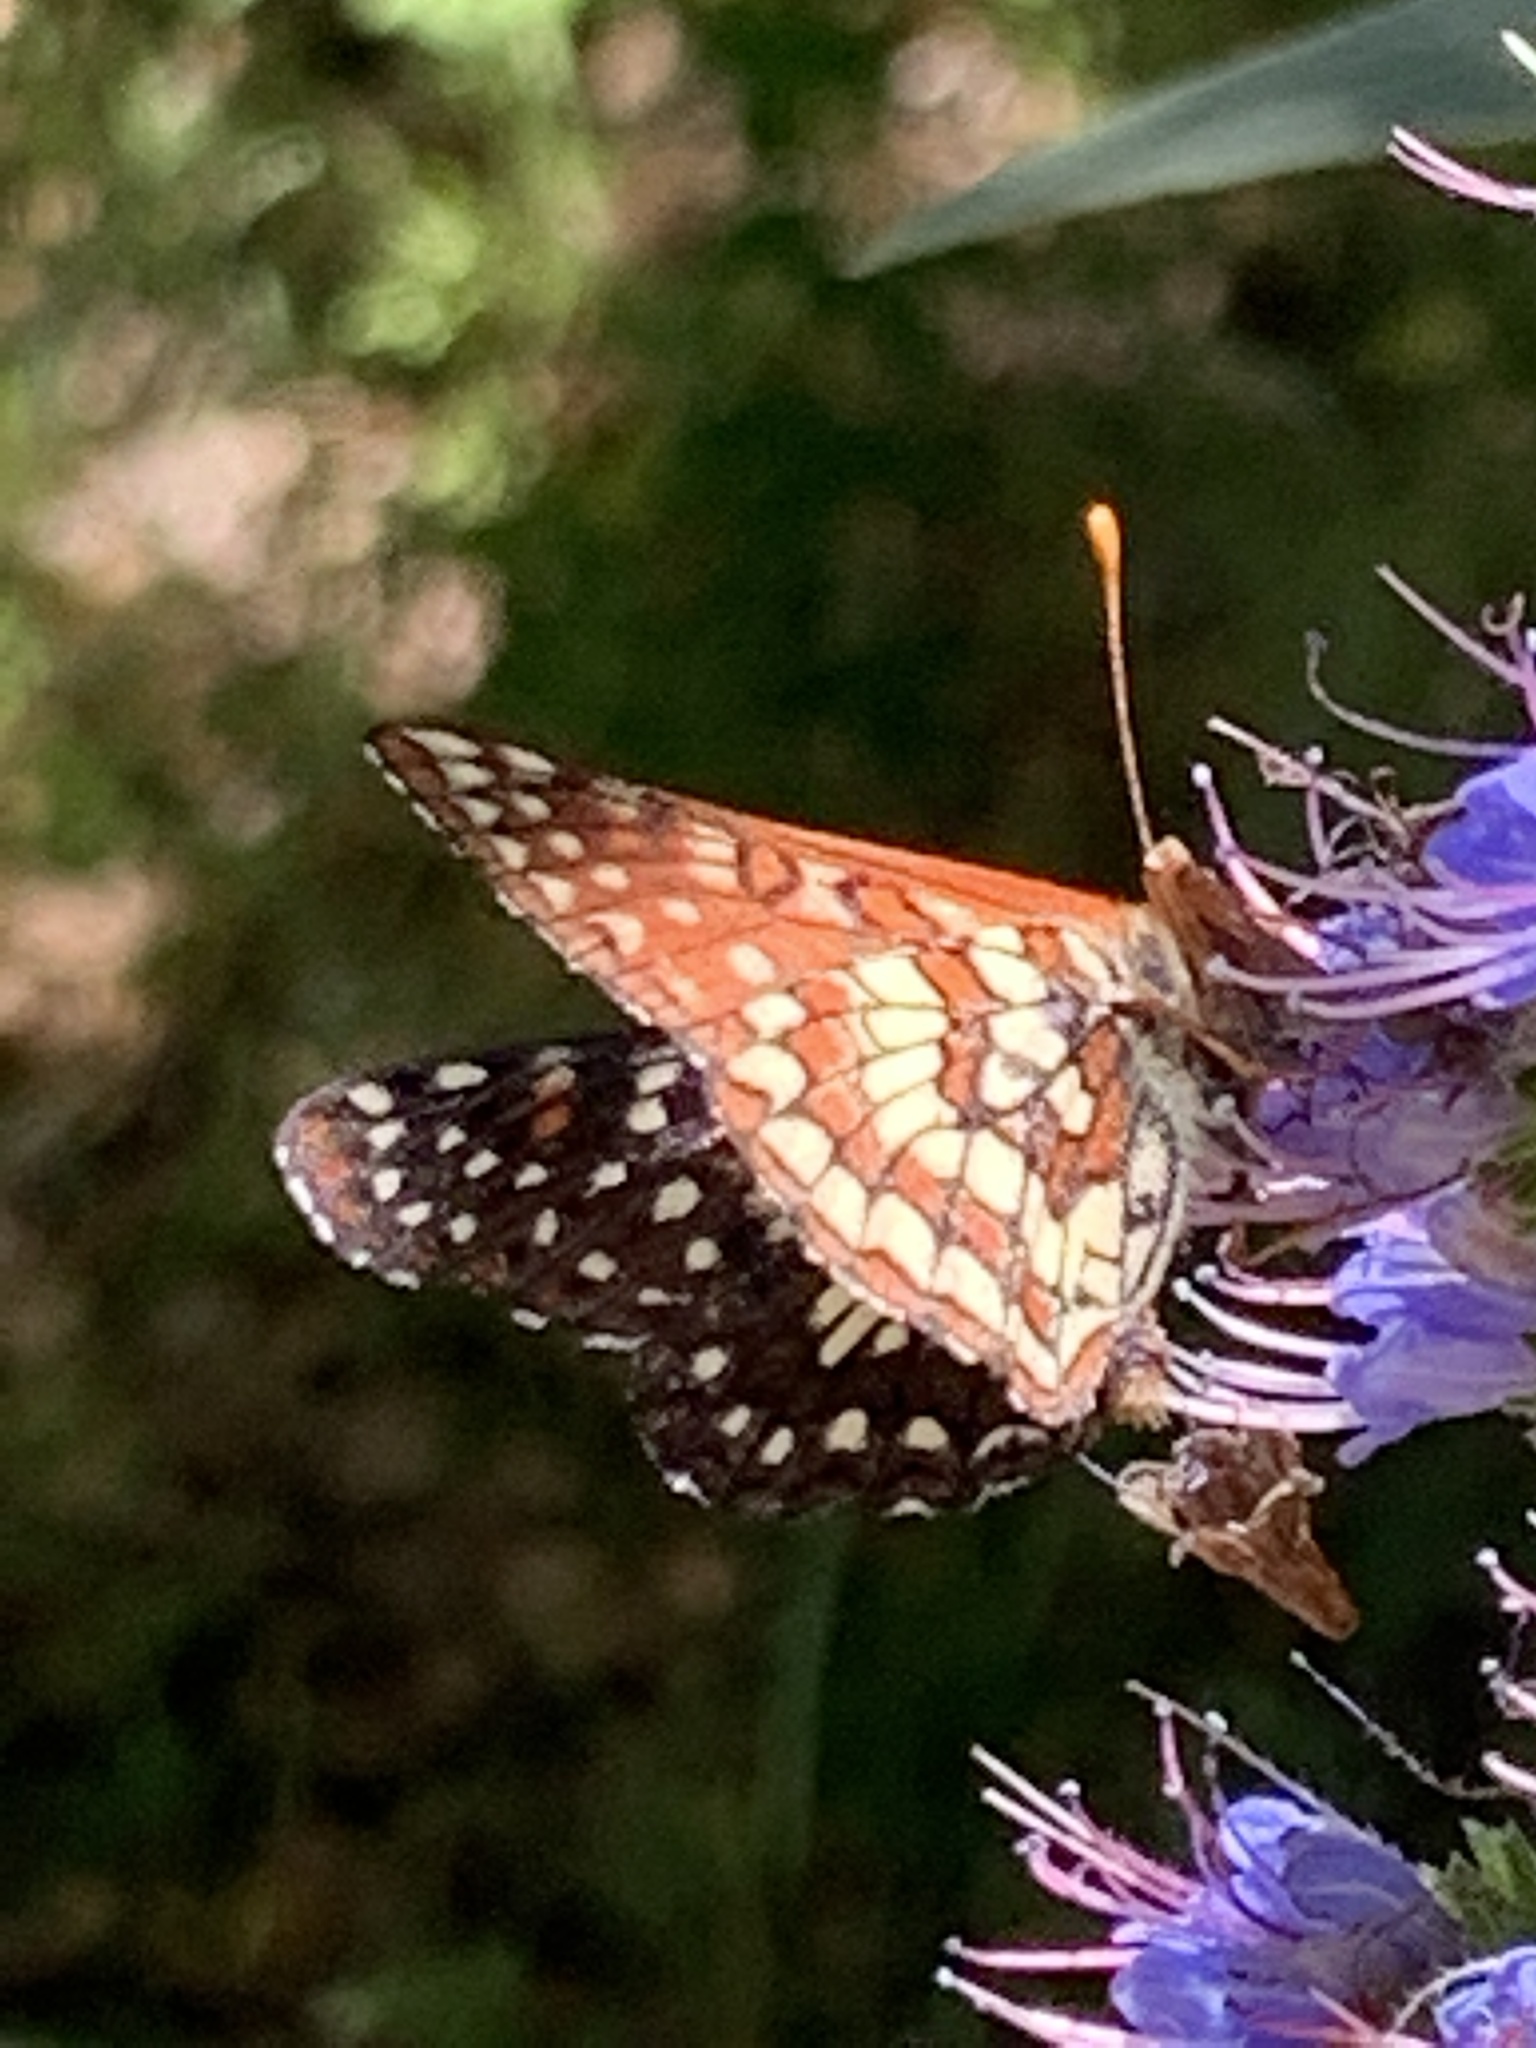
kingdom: Animalia
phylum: Arthropoda
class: Insecta
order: Lepidoptera
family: Nymphalidae
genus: Occidryas
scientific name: Occidryas chalcedona
